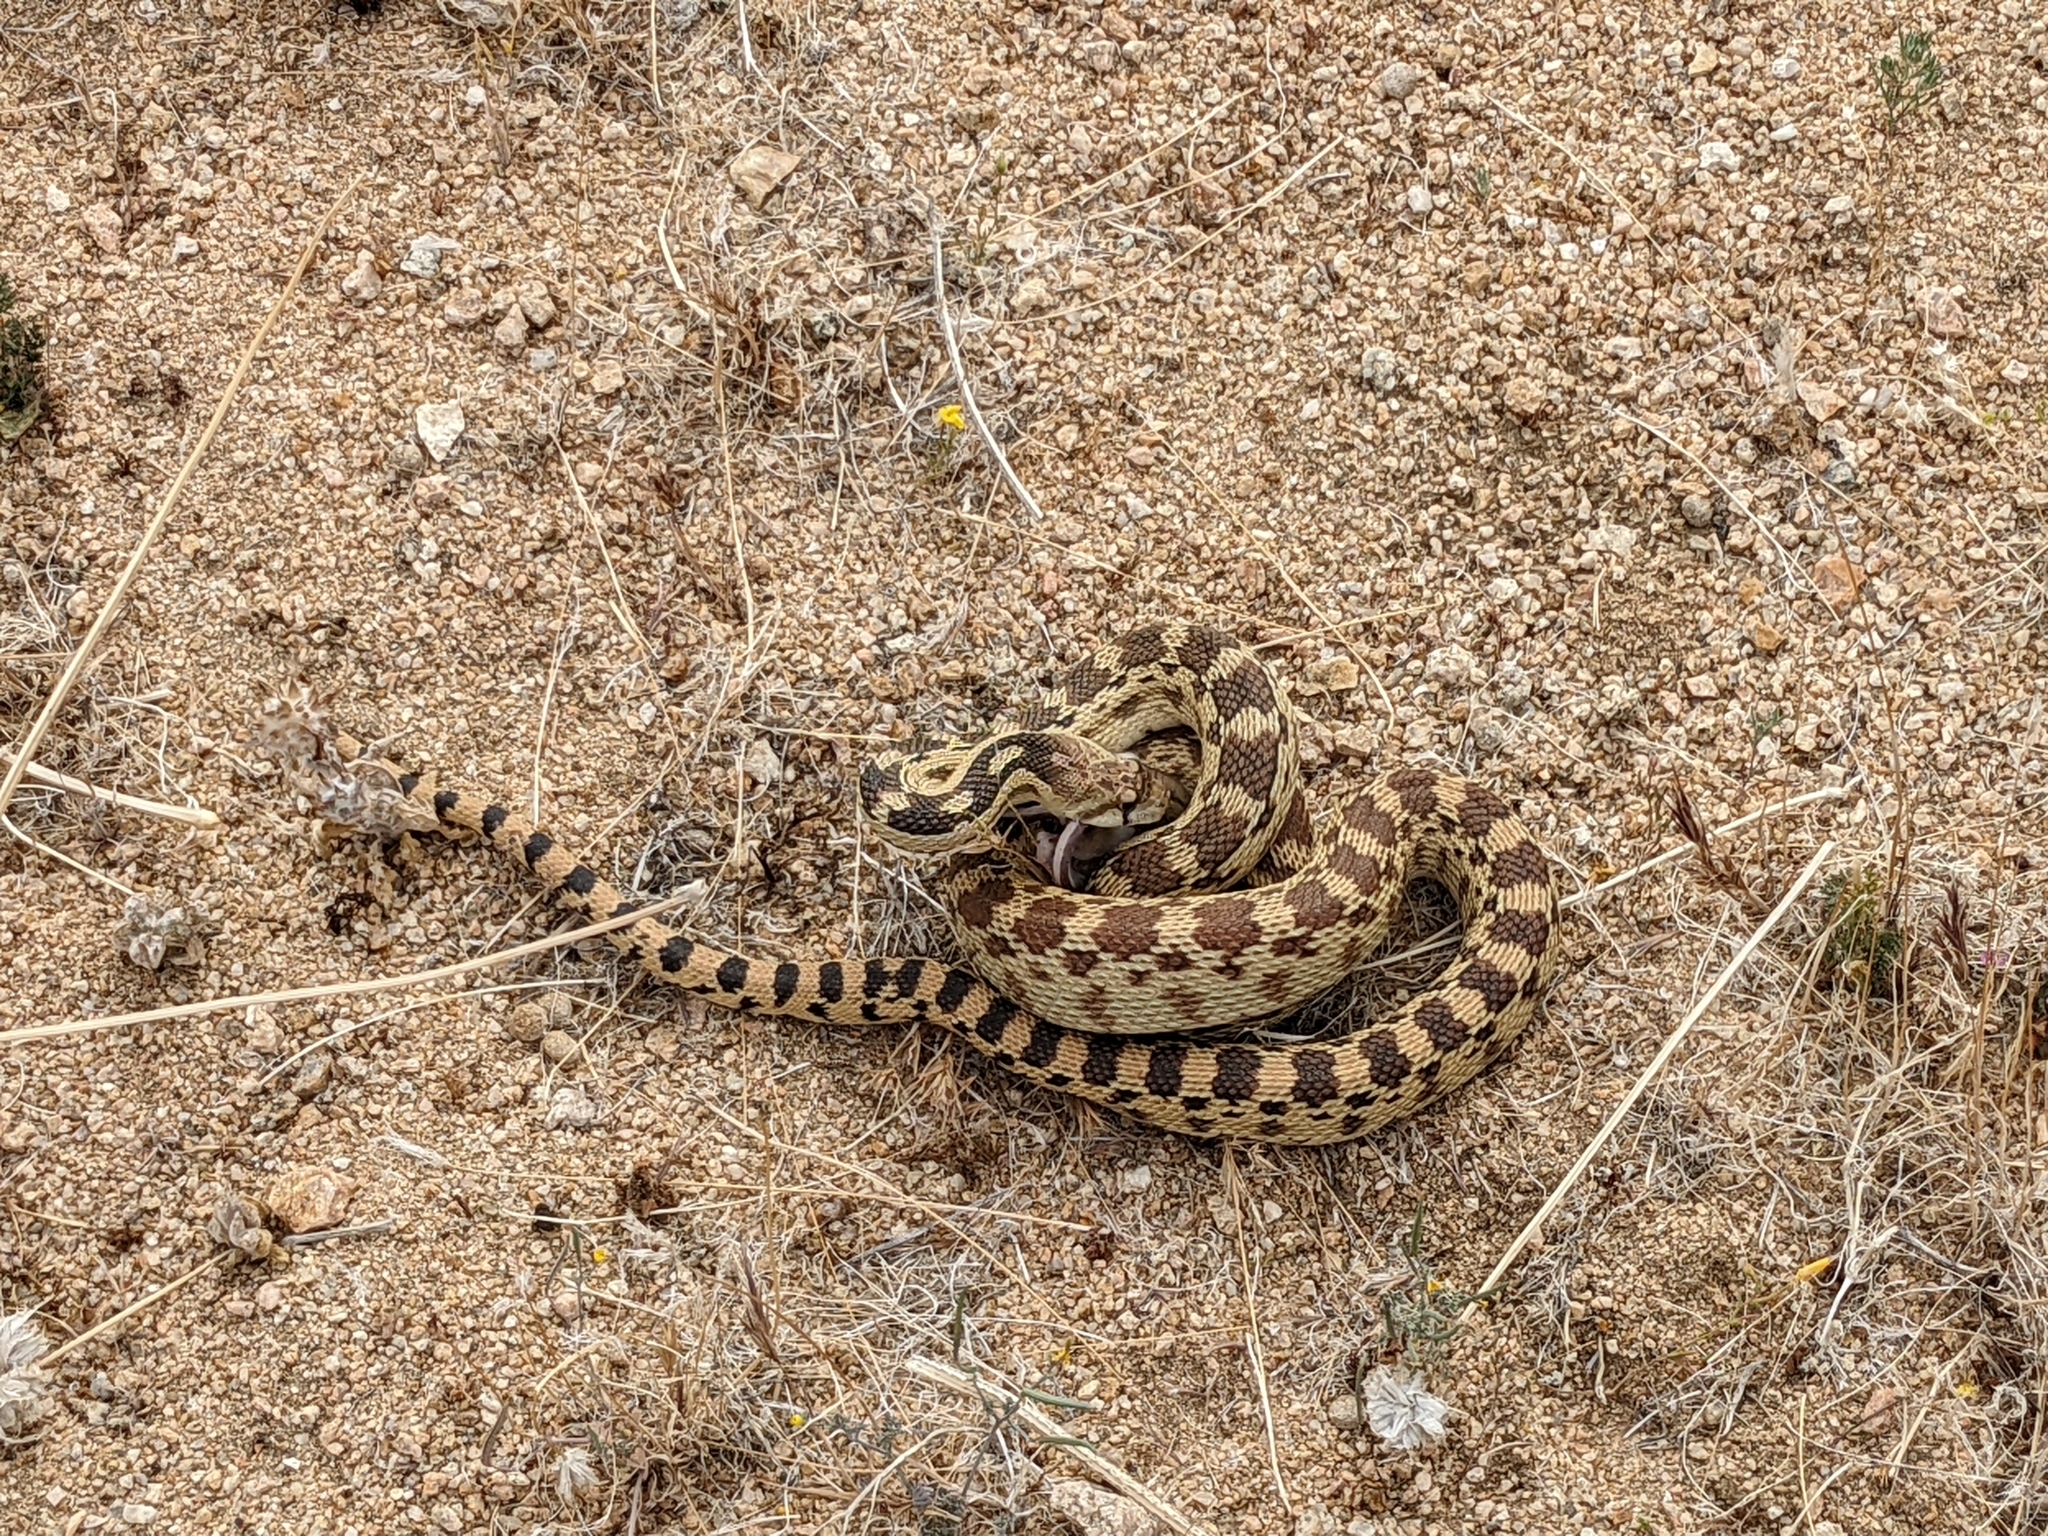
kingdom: Animalia
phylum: Chordata
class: Squamata
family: Colubridae
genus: Pituophis
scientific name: Pituophis catenifer
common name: Gopher snake
